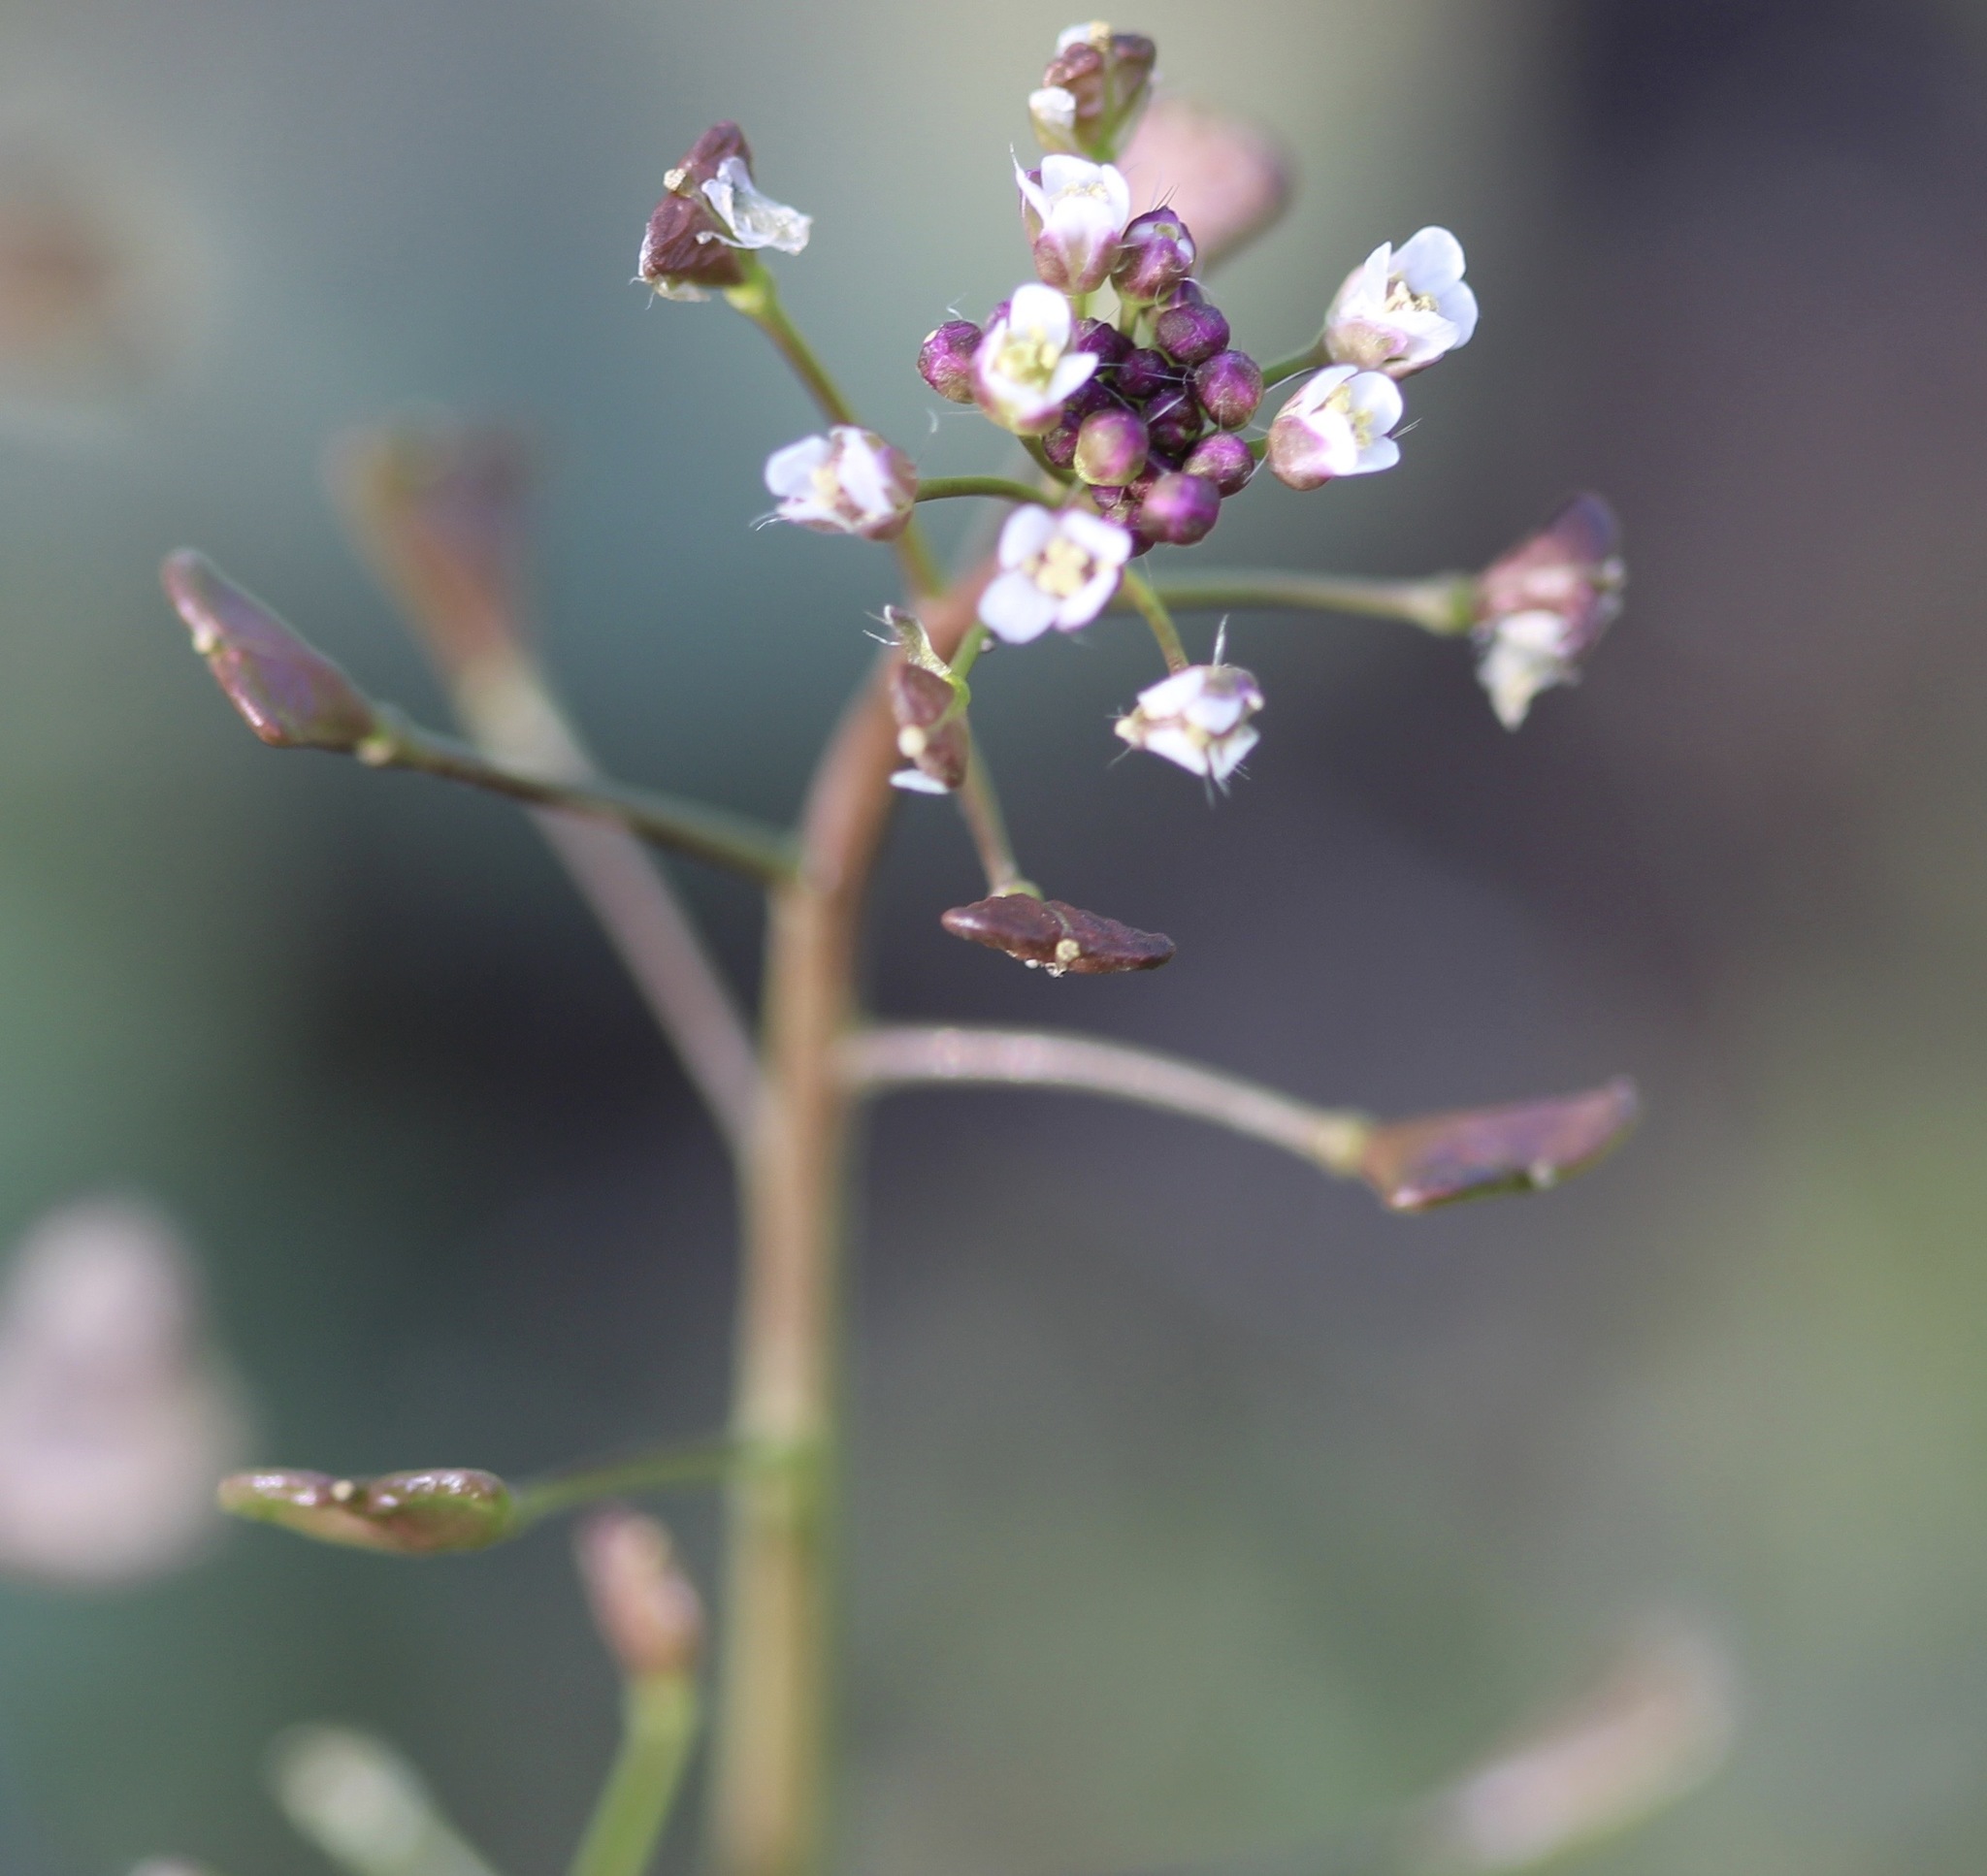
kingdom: Plantae
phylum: Tracheophyta
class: Magnoliopsida
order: Brassicales
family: Brassicaceae
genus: Capsella
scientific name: Capsella bursa-pastoris
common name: Shepherd's purse
